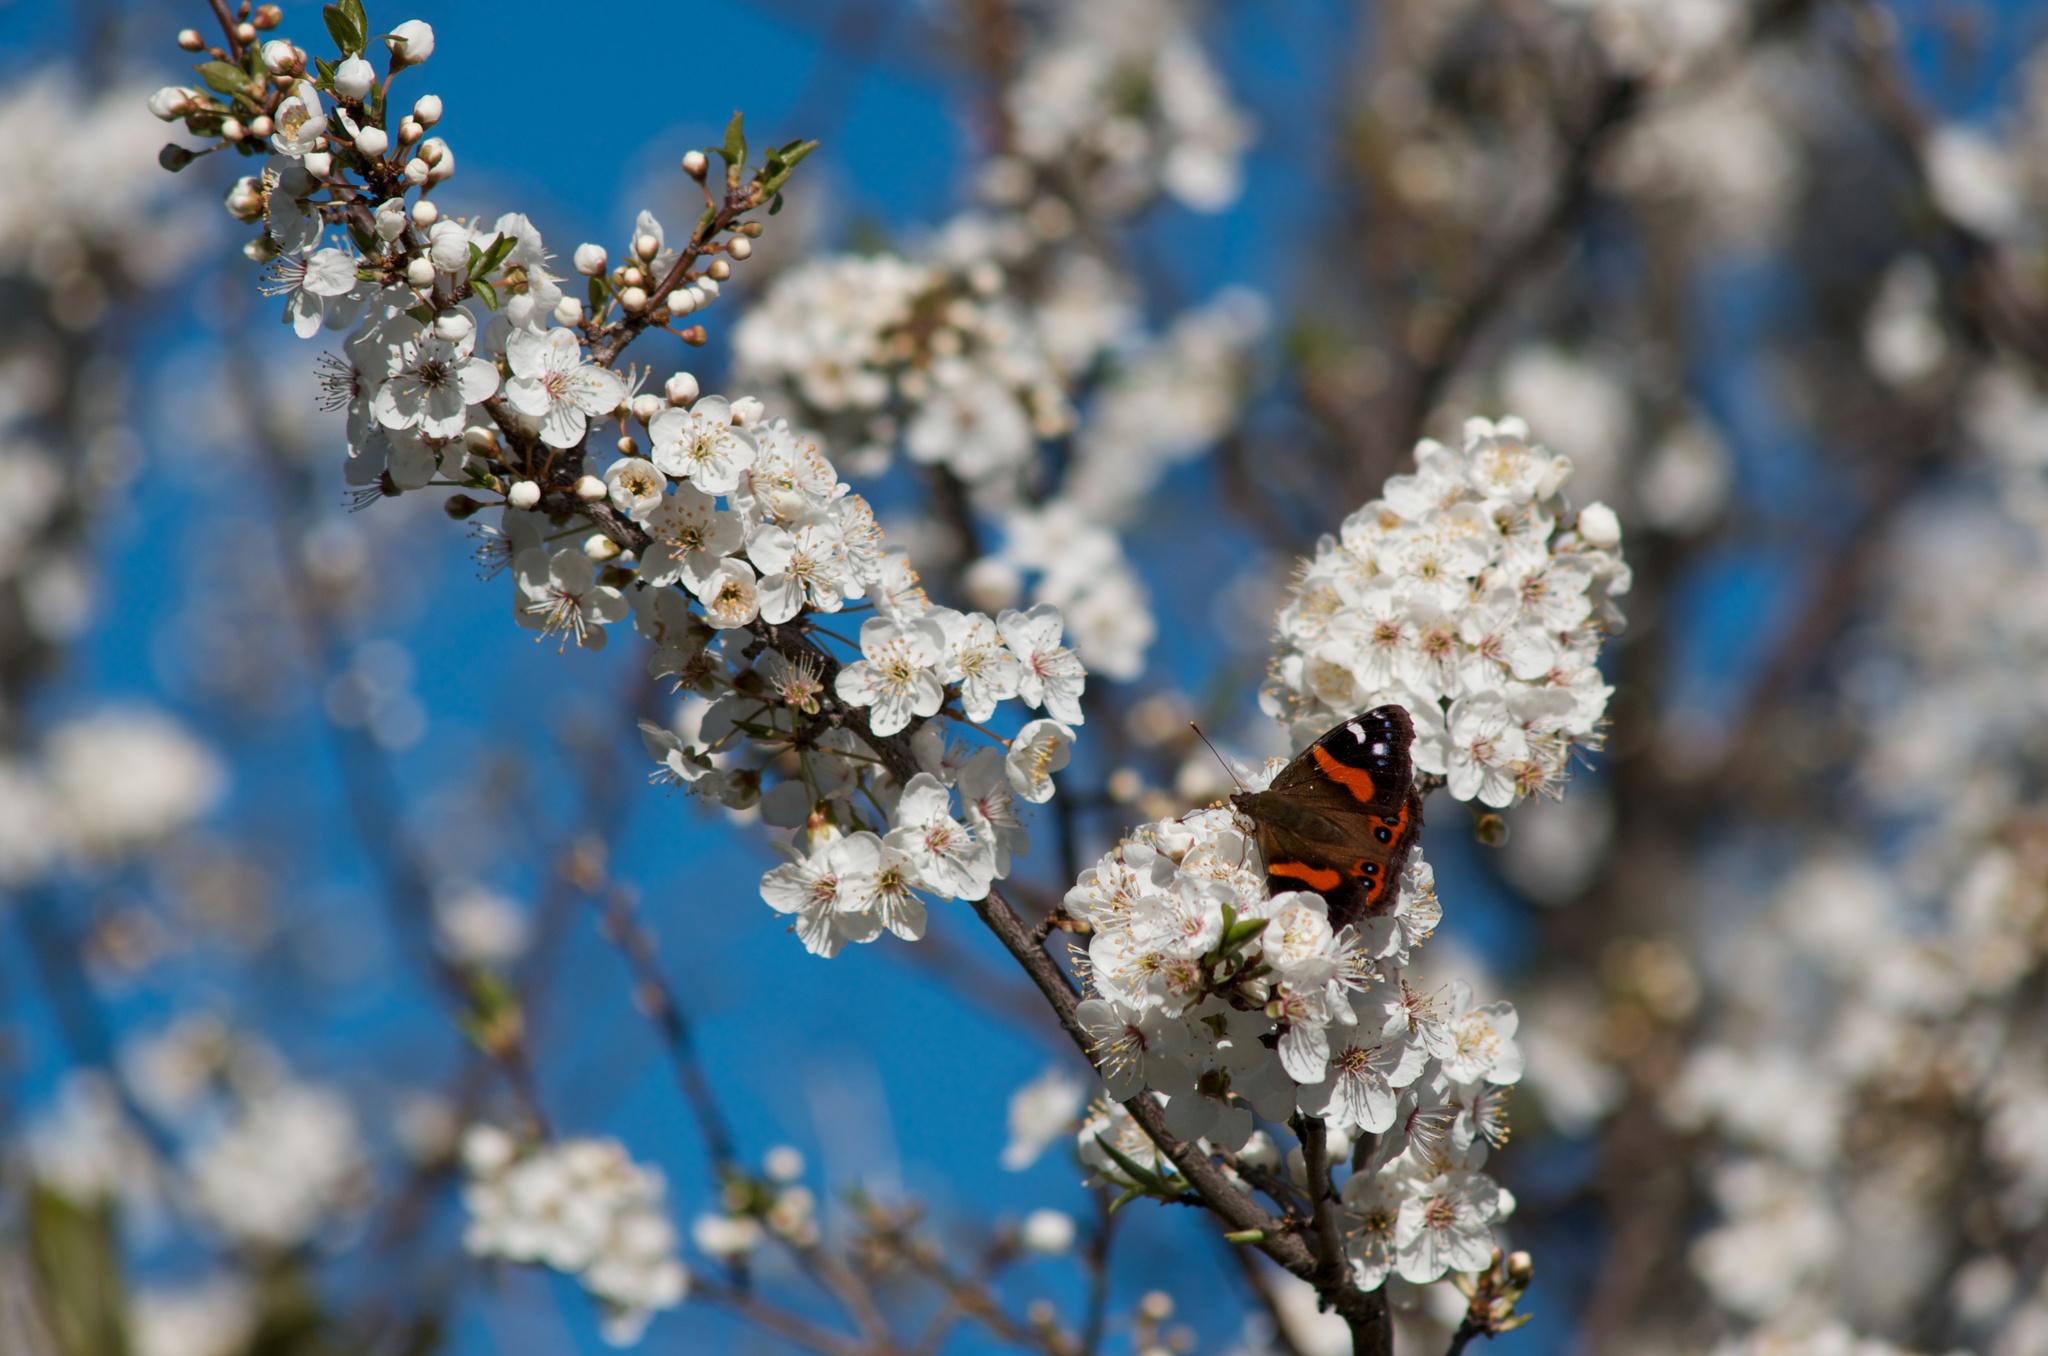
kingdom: Animalia
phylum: Arthropoda
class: Insecta
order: Lepidoptera
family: Nymphalidae
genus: Vanessa
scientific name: Vanessa gonerilla
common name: New zealand red admiral
